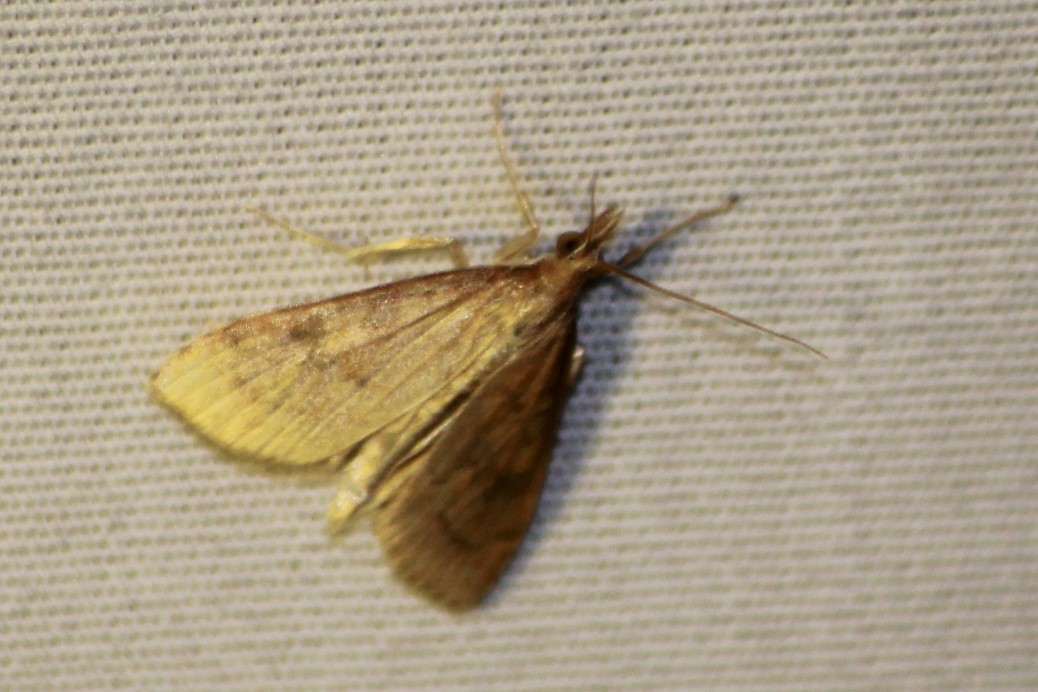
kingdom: Animalia
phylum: Arthropoda
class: Insecta
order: Lepidoptera
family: Crambidae
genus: Udea
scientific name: Udea rubigalis
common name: Celery leaftier moth
